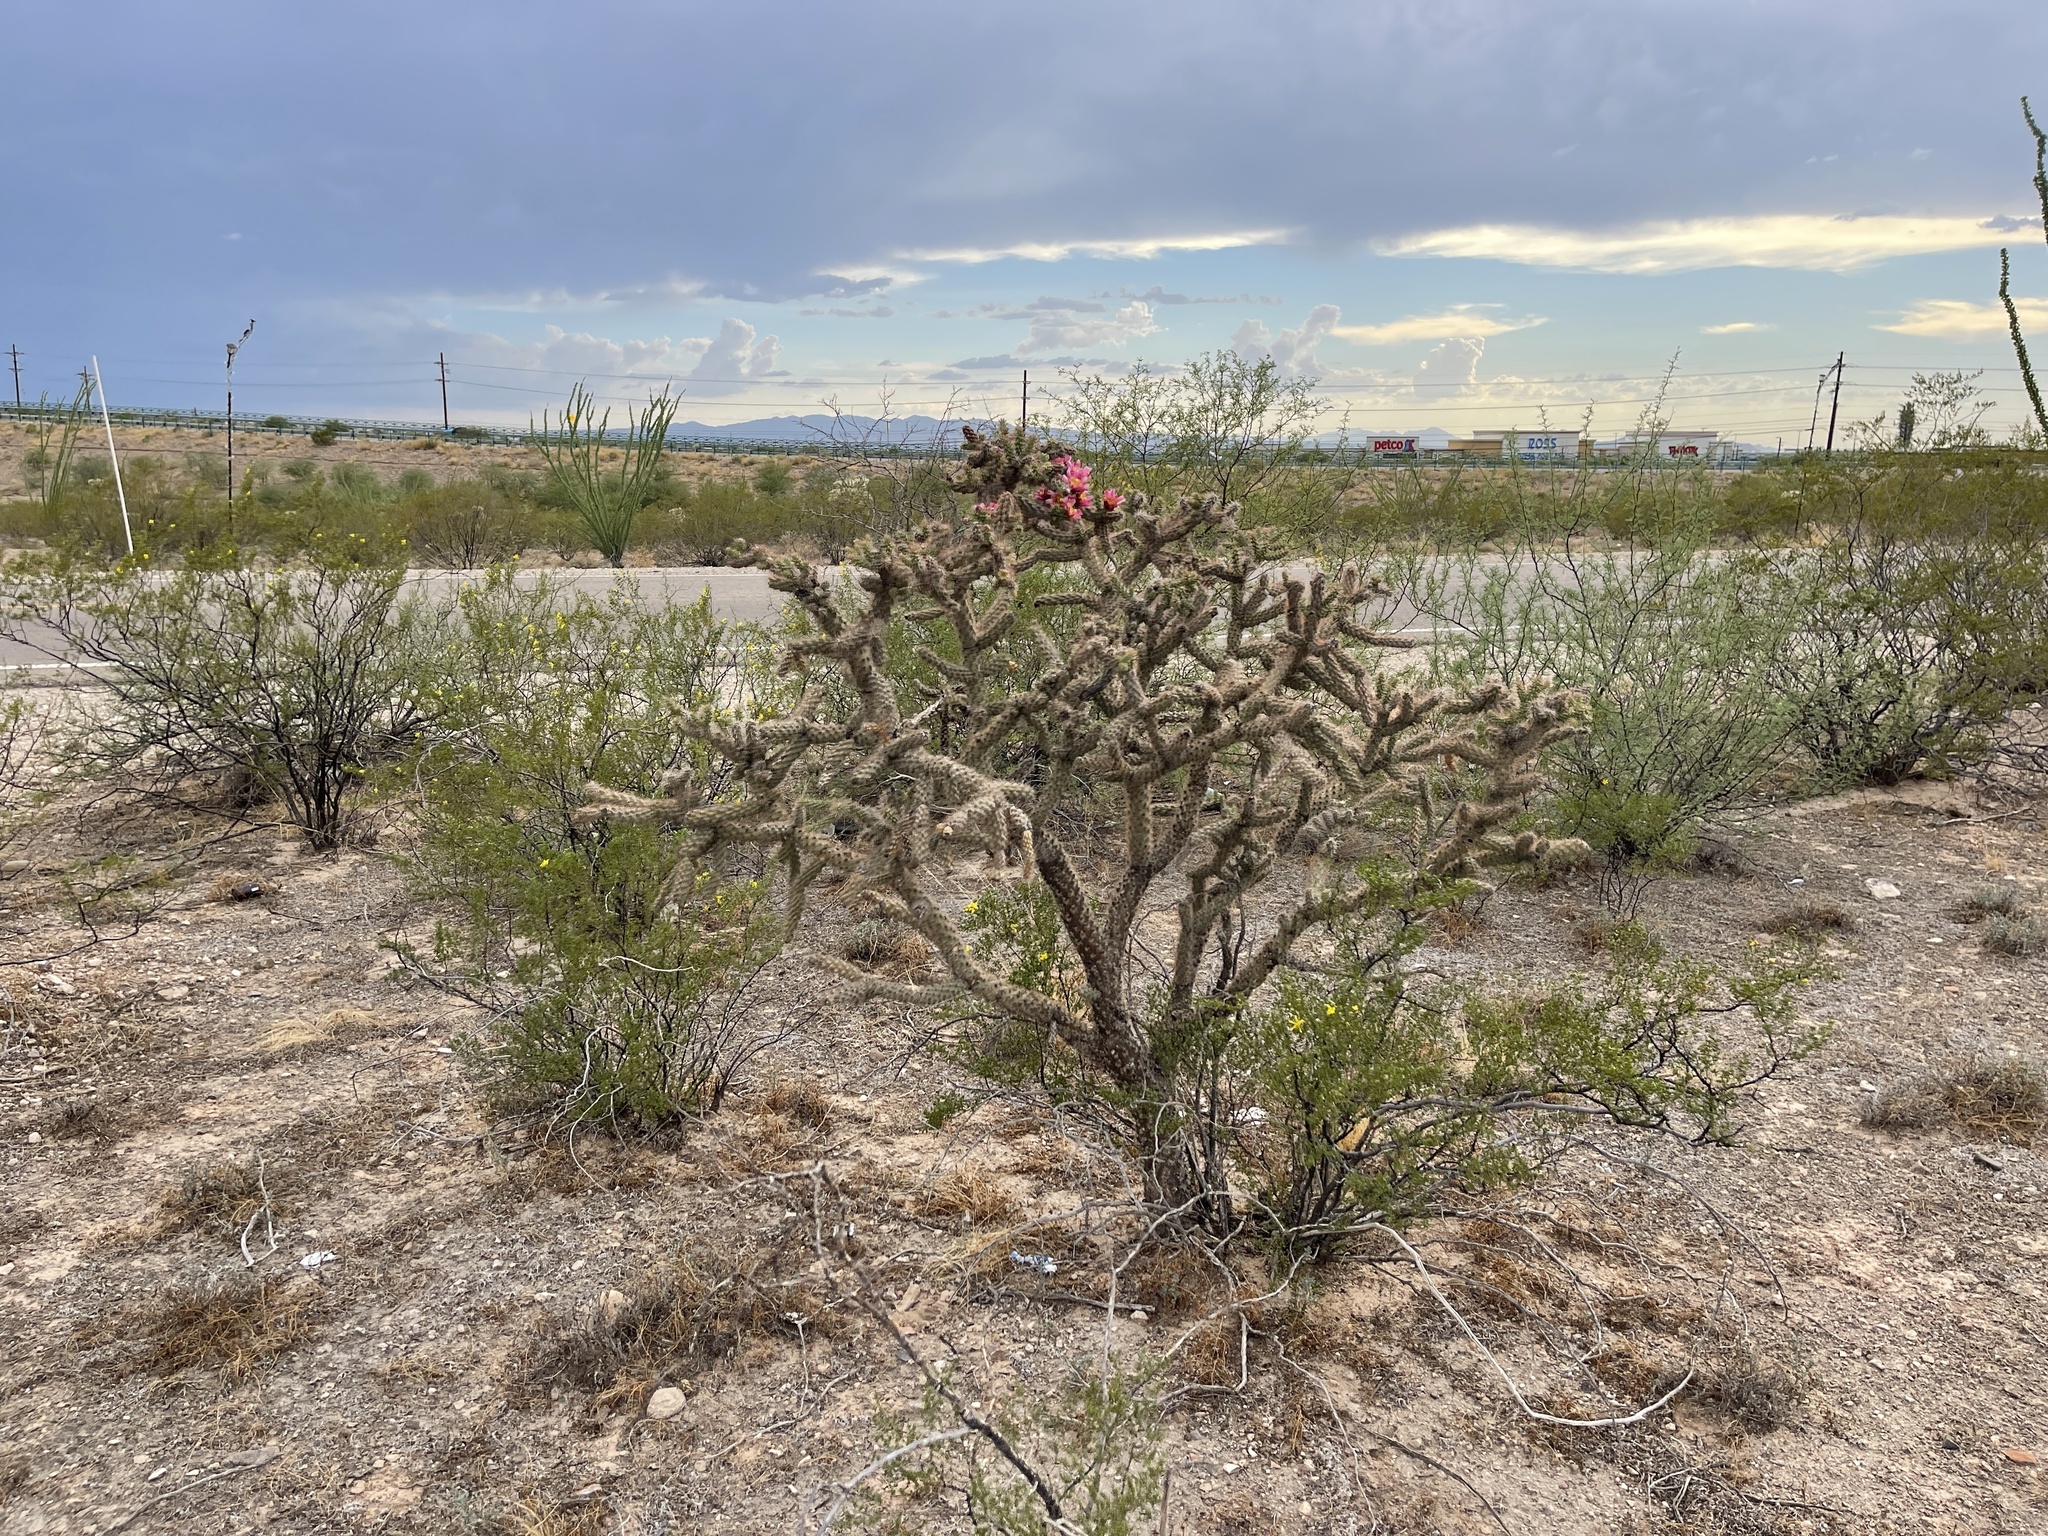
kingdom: Plantae
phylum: Tracheophyta
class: Magnoliopsida
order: Caryophyllales
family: Cactaceae
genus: Cylindropuntia
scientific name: Cylindropuntia imbricata
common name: Candelabrum cactus
